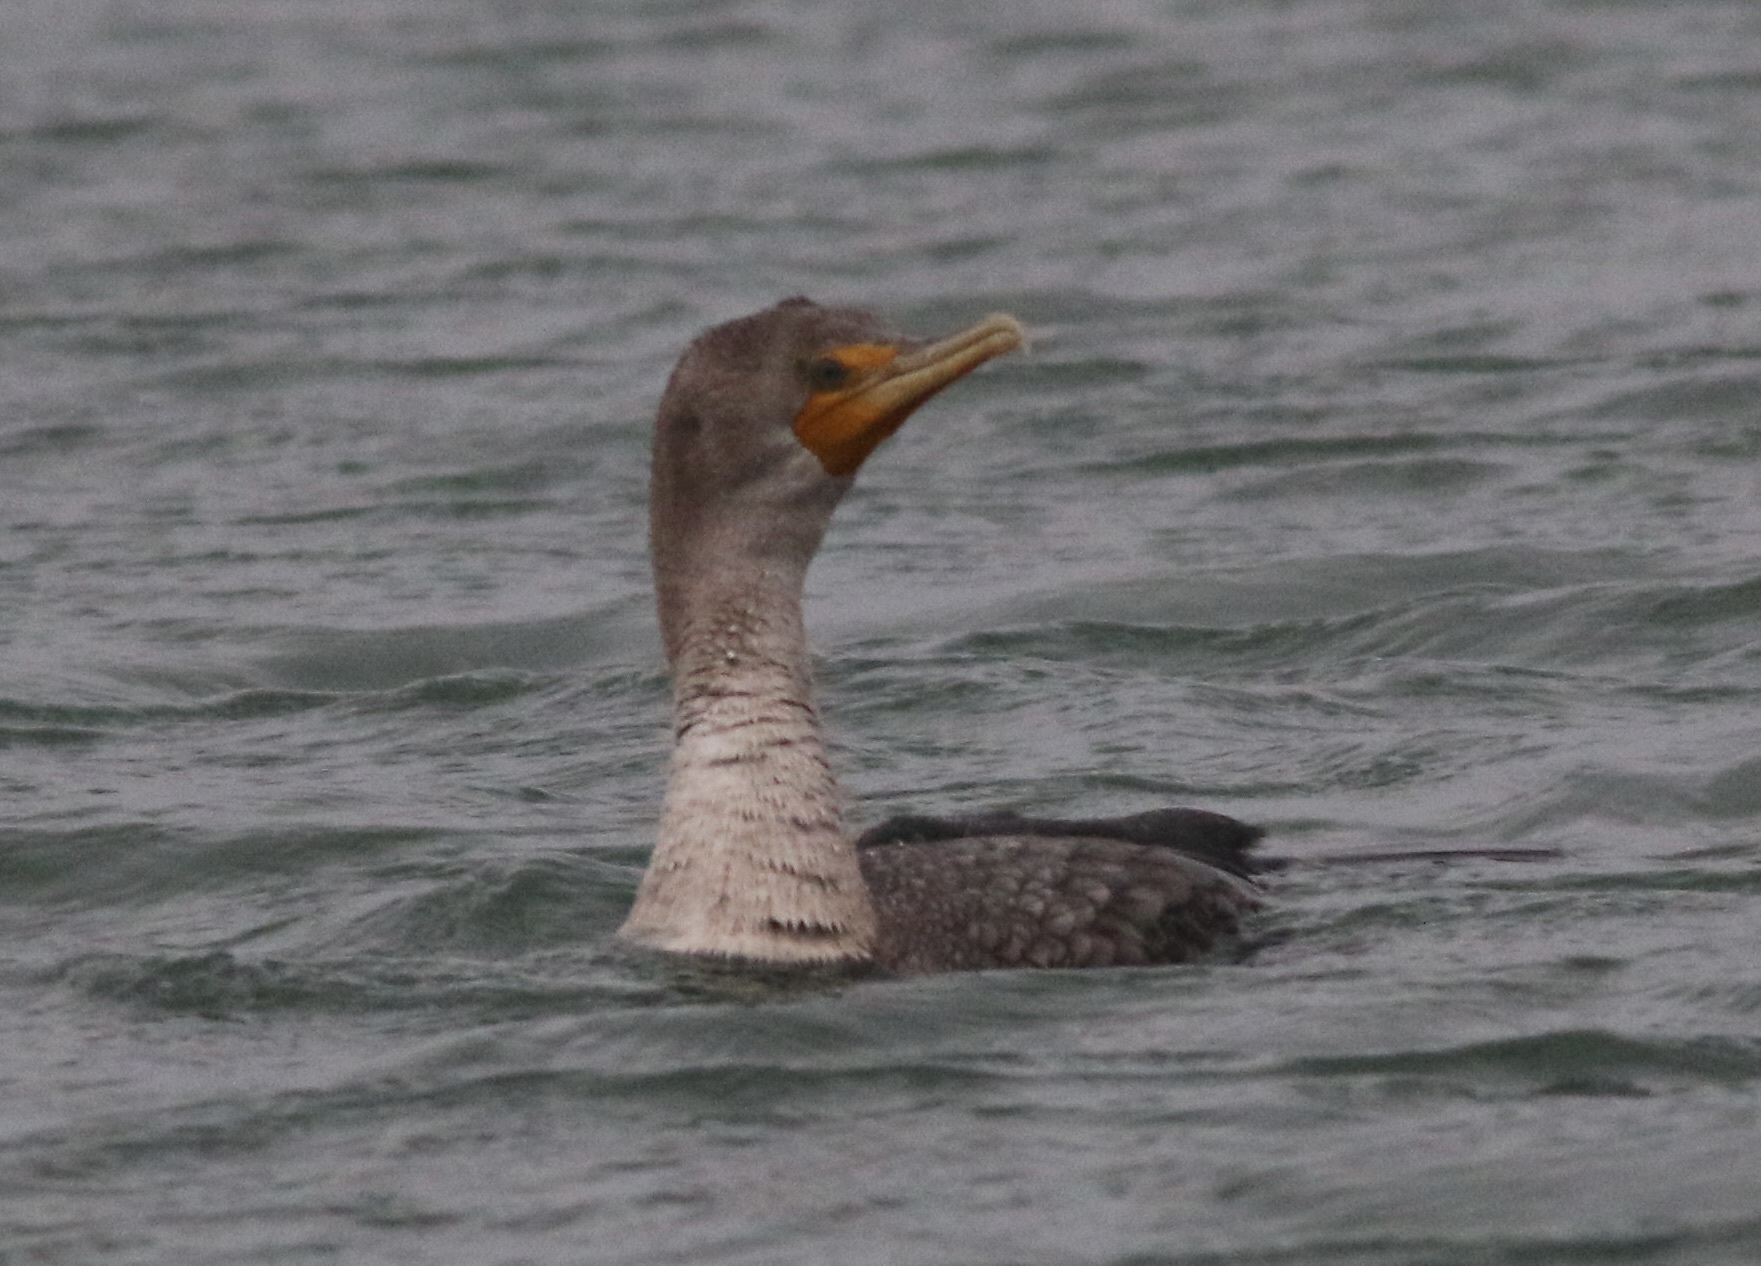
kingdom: Animalia
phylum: Chordata
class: Aves
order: Suliformes
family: Phalacrocoracidae
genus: Phalacrocorax
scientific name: Phalacrocorax auritus
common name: Double-crested cormorant
